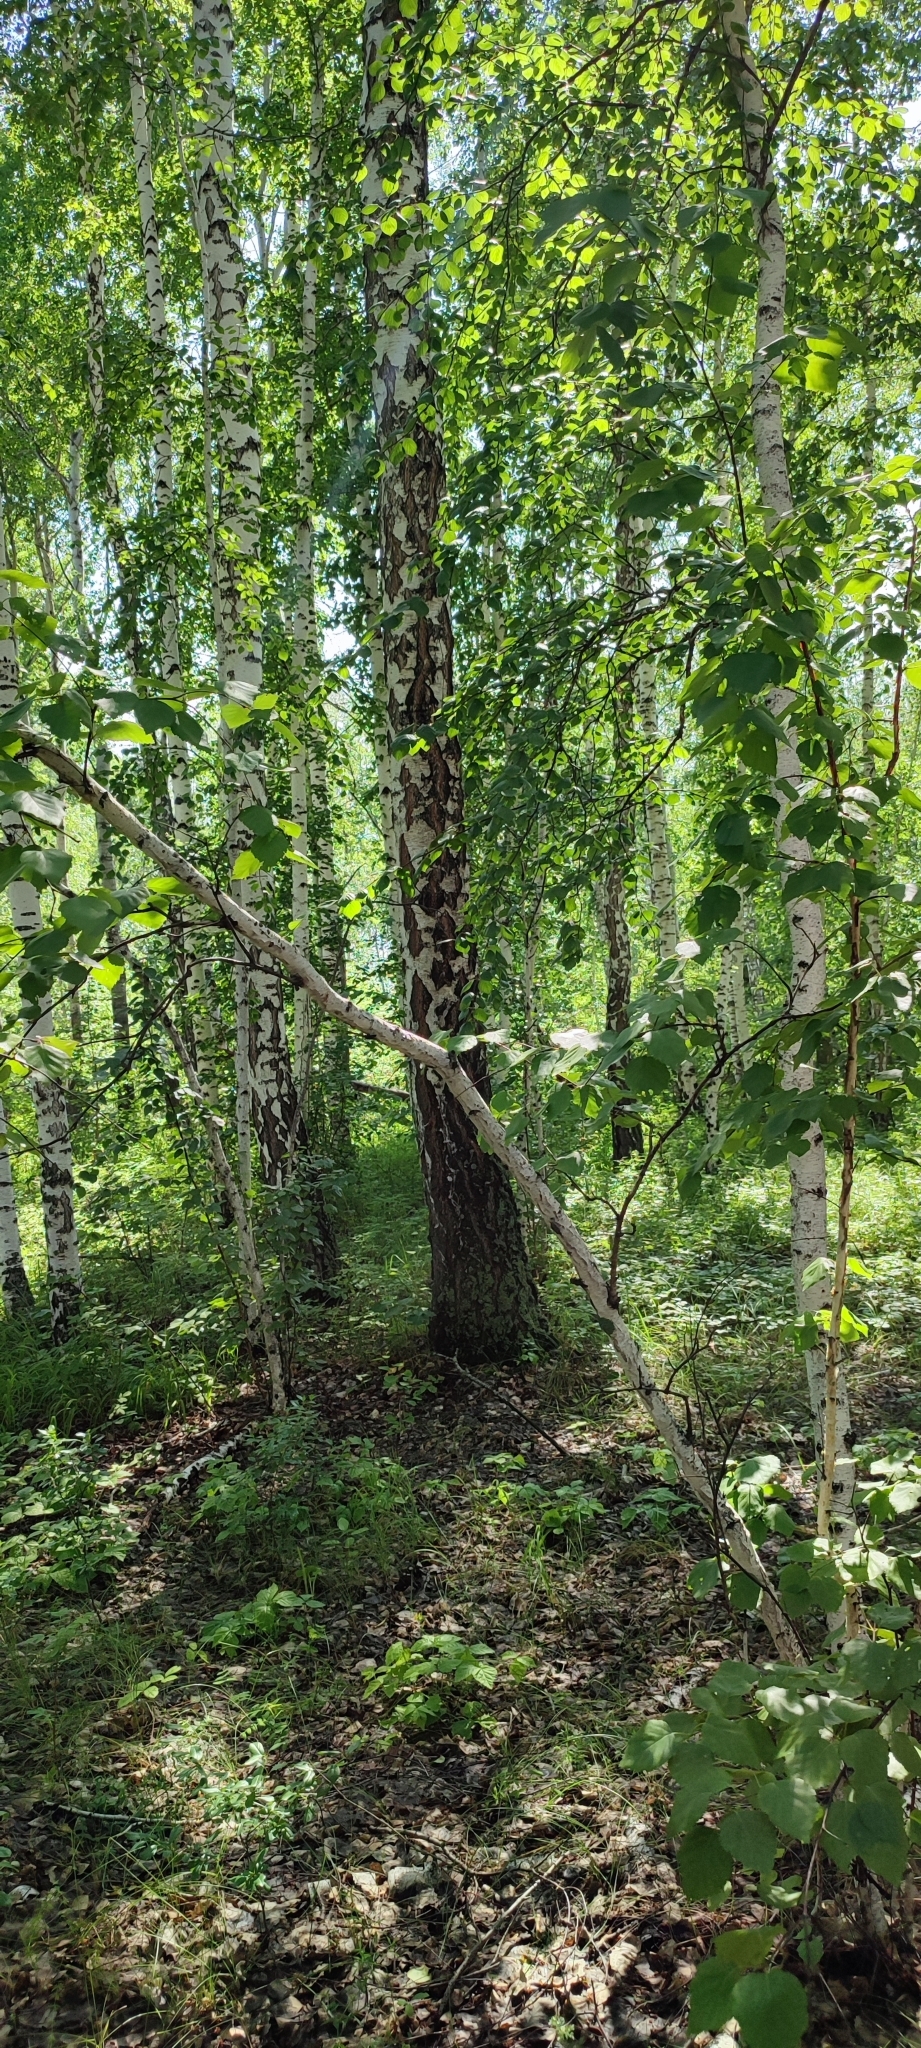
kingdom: Plantae
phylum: Tracheophyta
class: Magnoliopsida
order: Fagales
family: Betulaceae
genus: Betula
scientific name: Betula pendula
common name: Silver birch
